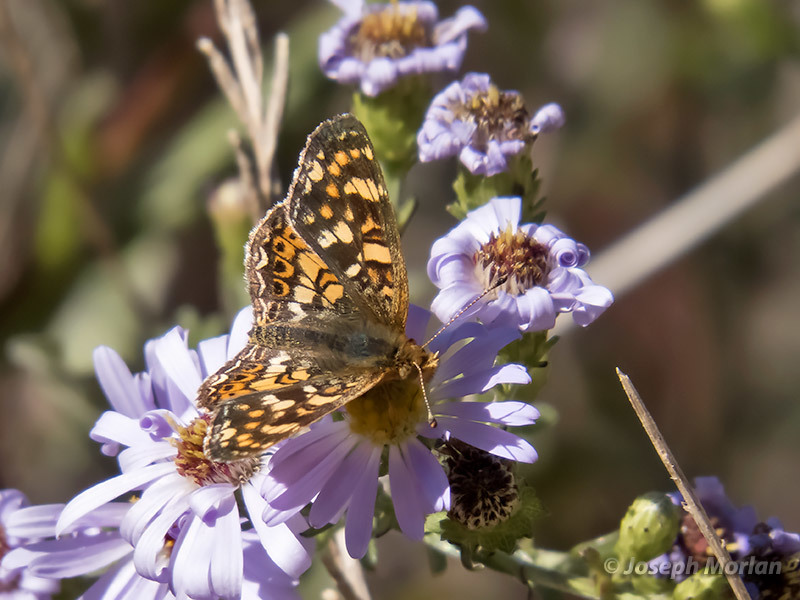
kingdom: Animalia
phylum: Arthropoda
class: Insecta
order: Lepidoptera
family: Nymphalidae
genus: Phyciodes
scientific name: Phyciodes tharos
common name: Pearl crescent
